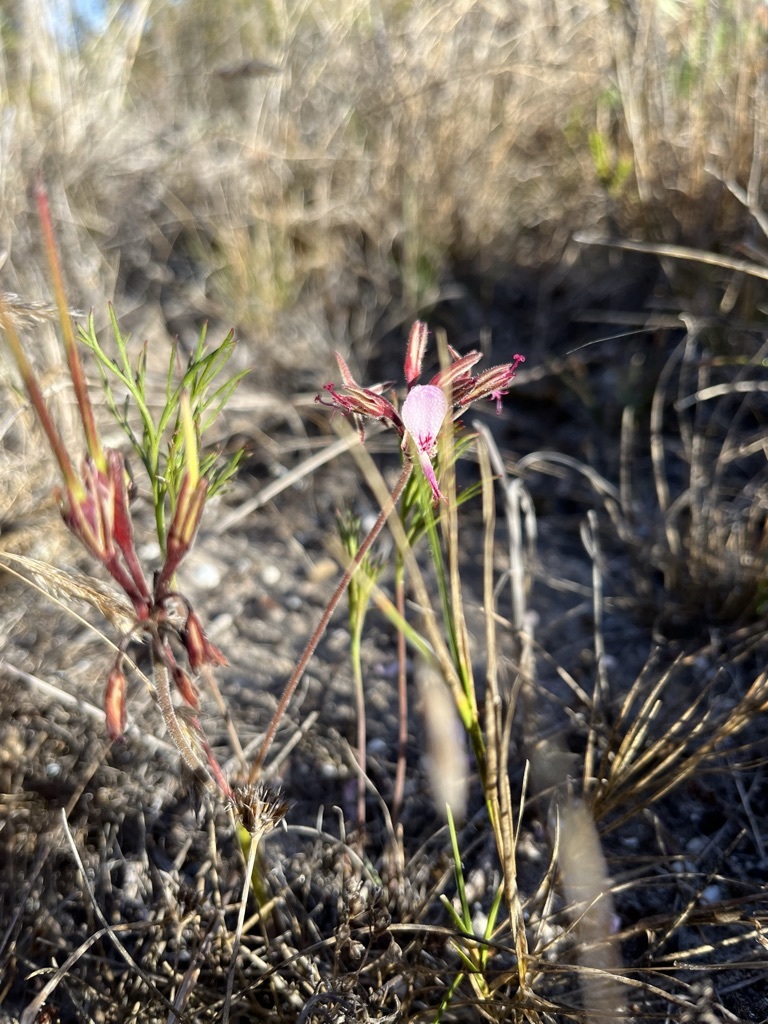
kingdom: Plantae
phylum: Tracheophyta
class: Magnoliopsida
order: Geraniales
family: Geraniaceae
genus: Pelargonium
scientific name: Pelargonium dipetalum
